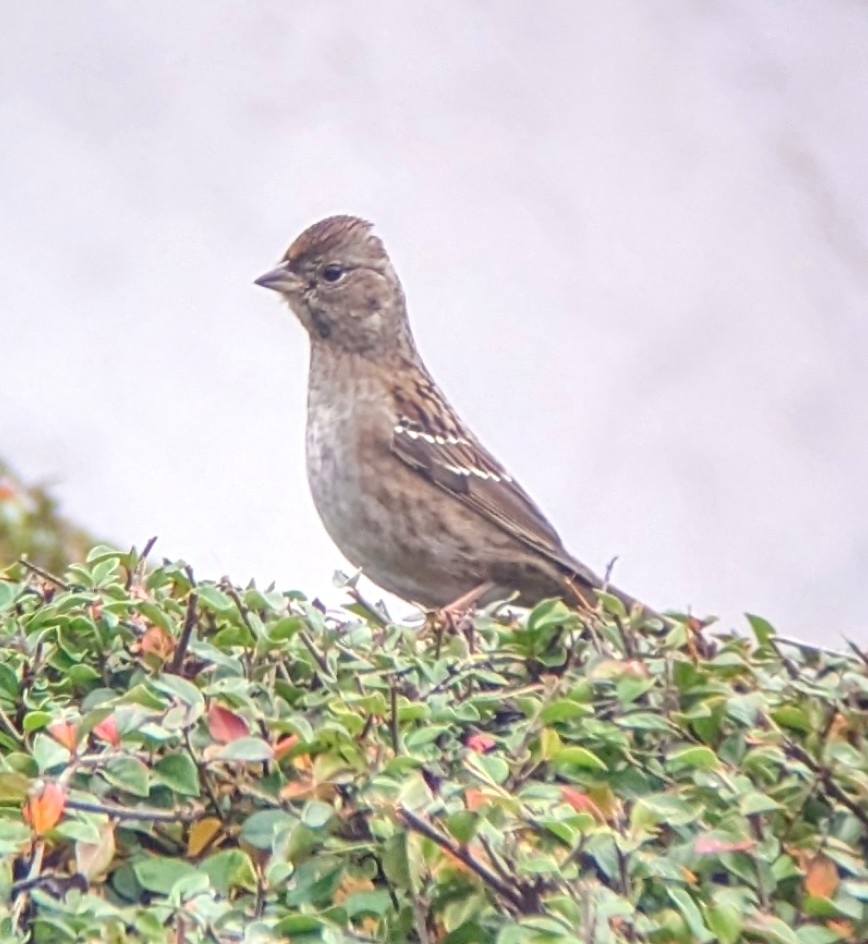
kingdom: Animalia
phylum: Chordata
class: Aves
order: Passeriformes
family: Passerellidae
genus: Zonotrichia
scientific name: Zonotrichia atricapilla
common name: Golden-crowned sparrow
